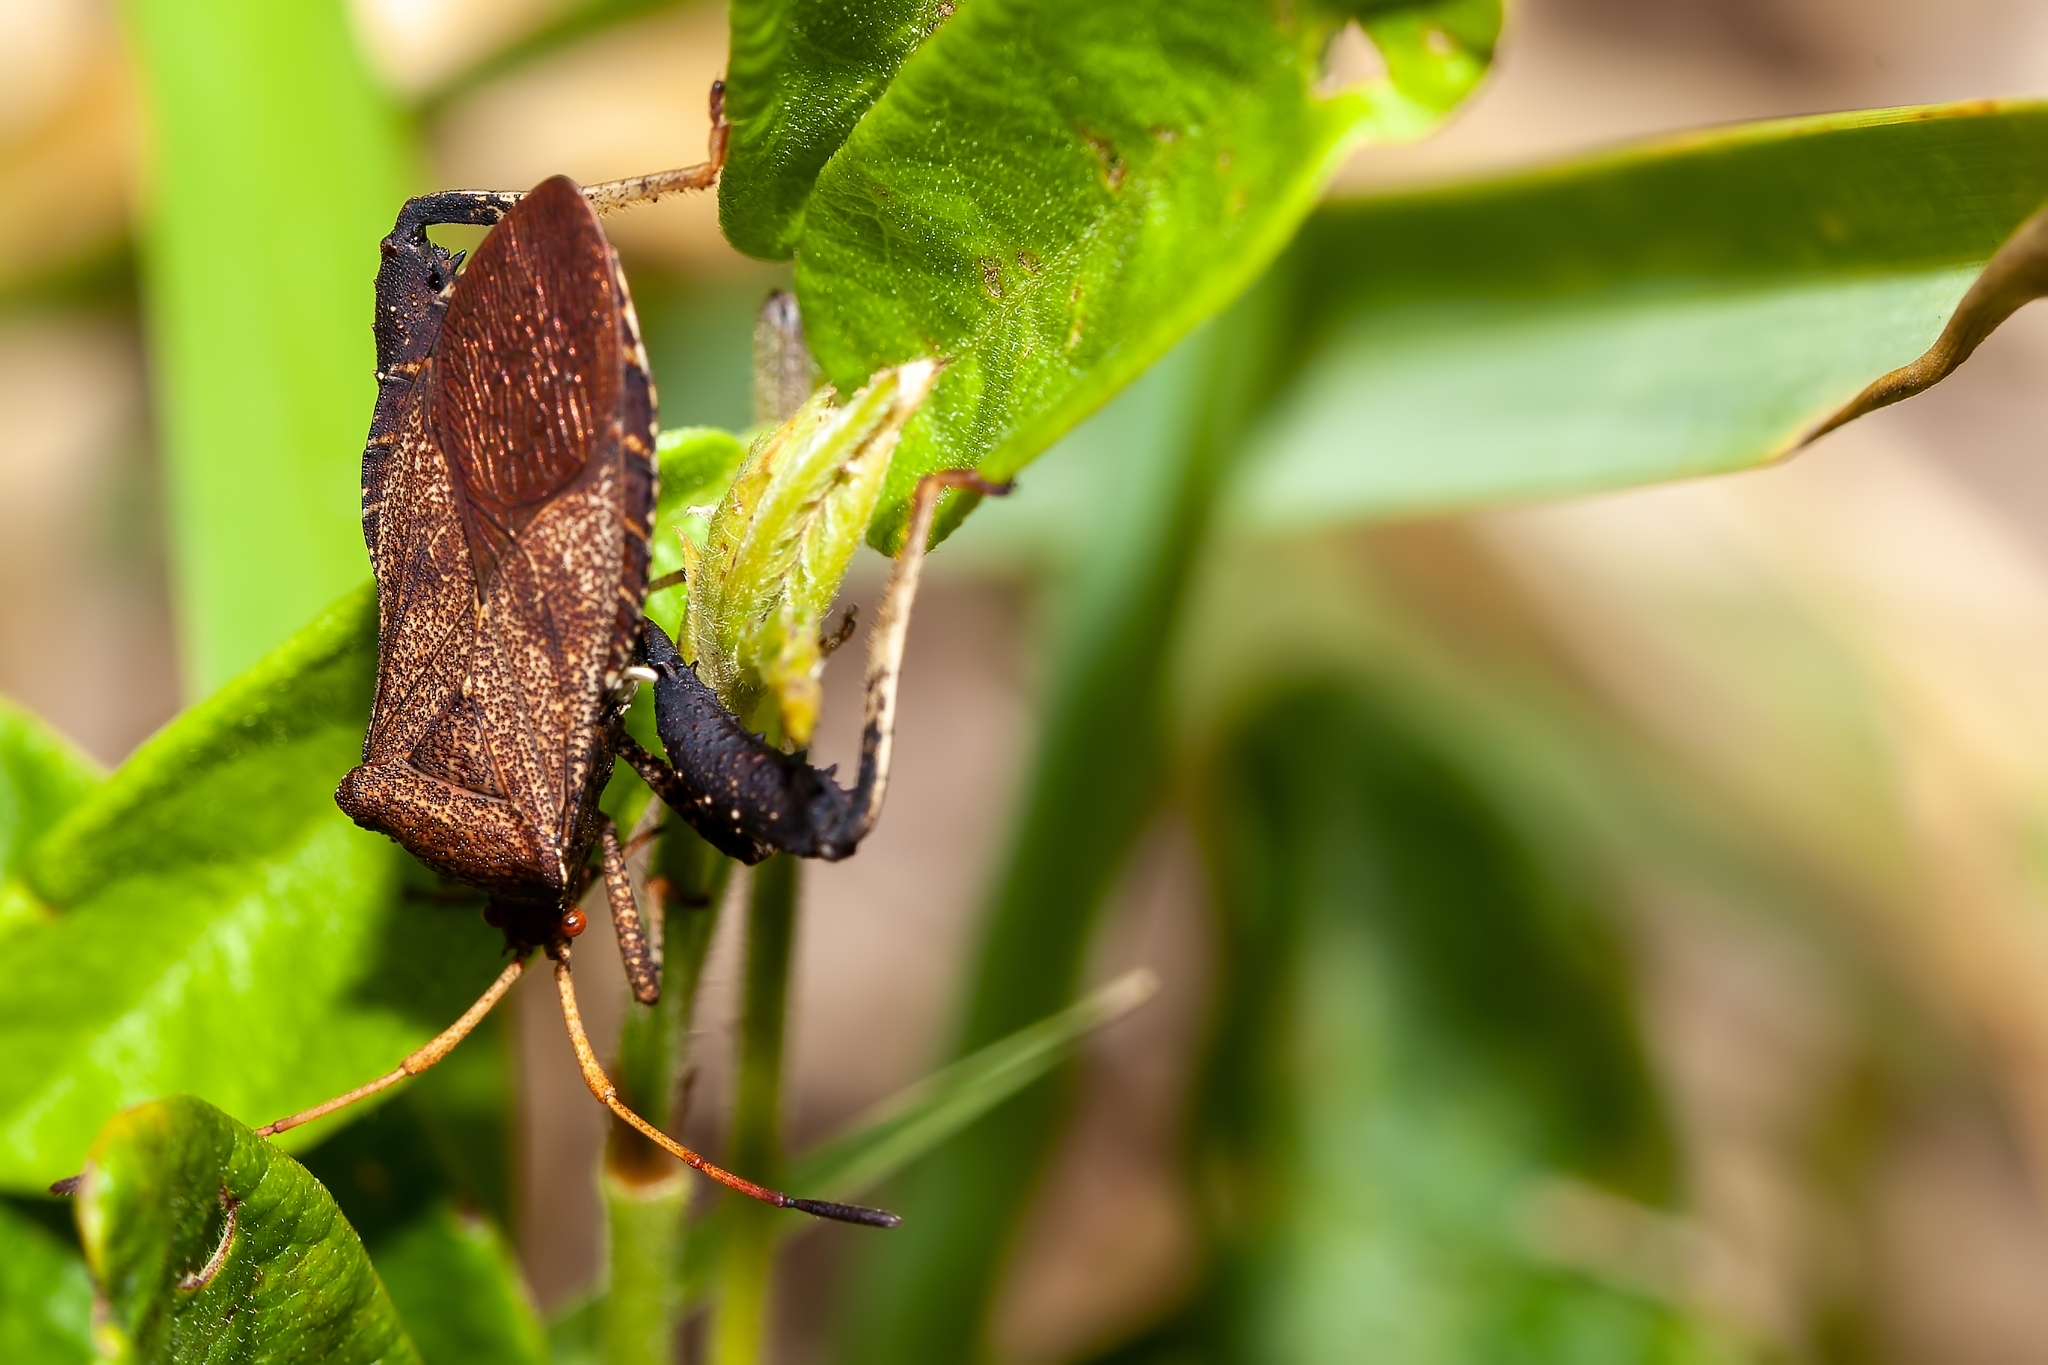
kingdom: Animalia
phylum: Arthropoda
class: Insecta
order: Hemiptera
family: Coreidae
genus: Euthochtha
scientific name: Euthochtha galeator
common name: Helmeted squash bug
